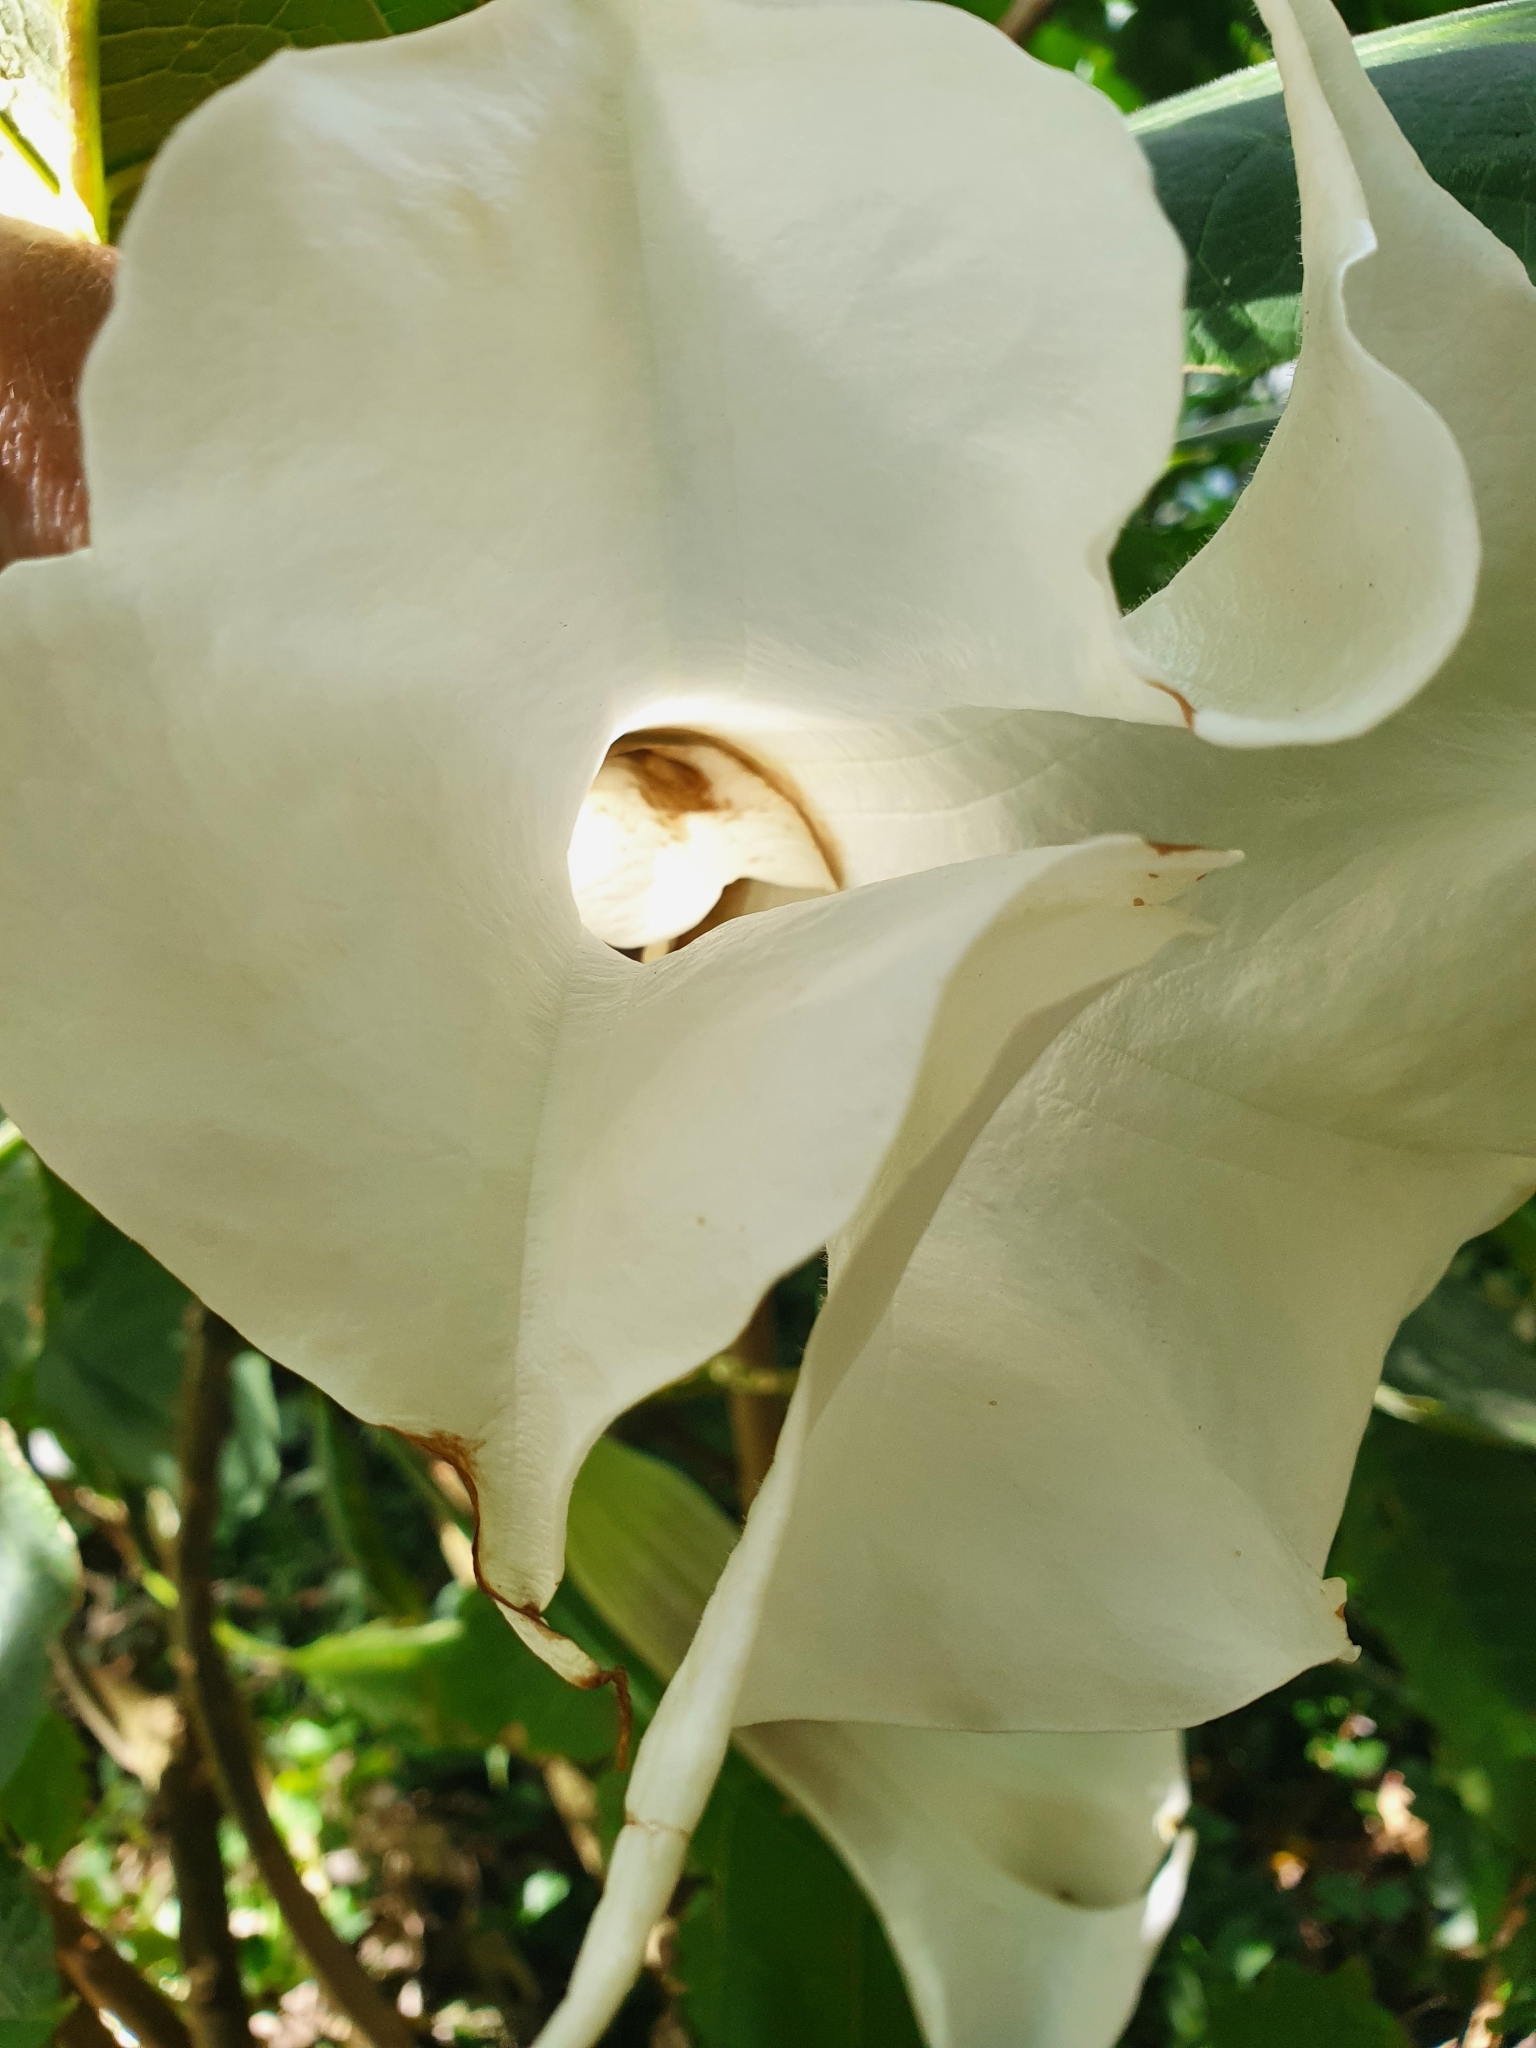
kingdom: Plantae
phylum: Tracheophyta
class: Magnoliopsida
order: Solanales
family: Solanaceae
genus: Brugmansia
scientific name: Brugmansia arborea
